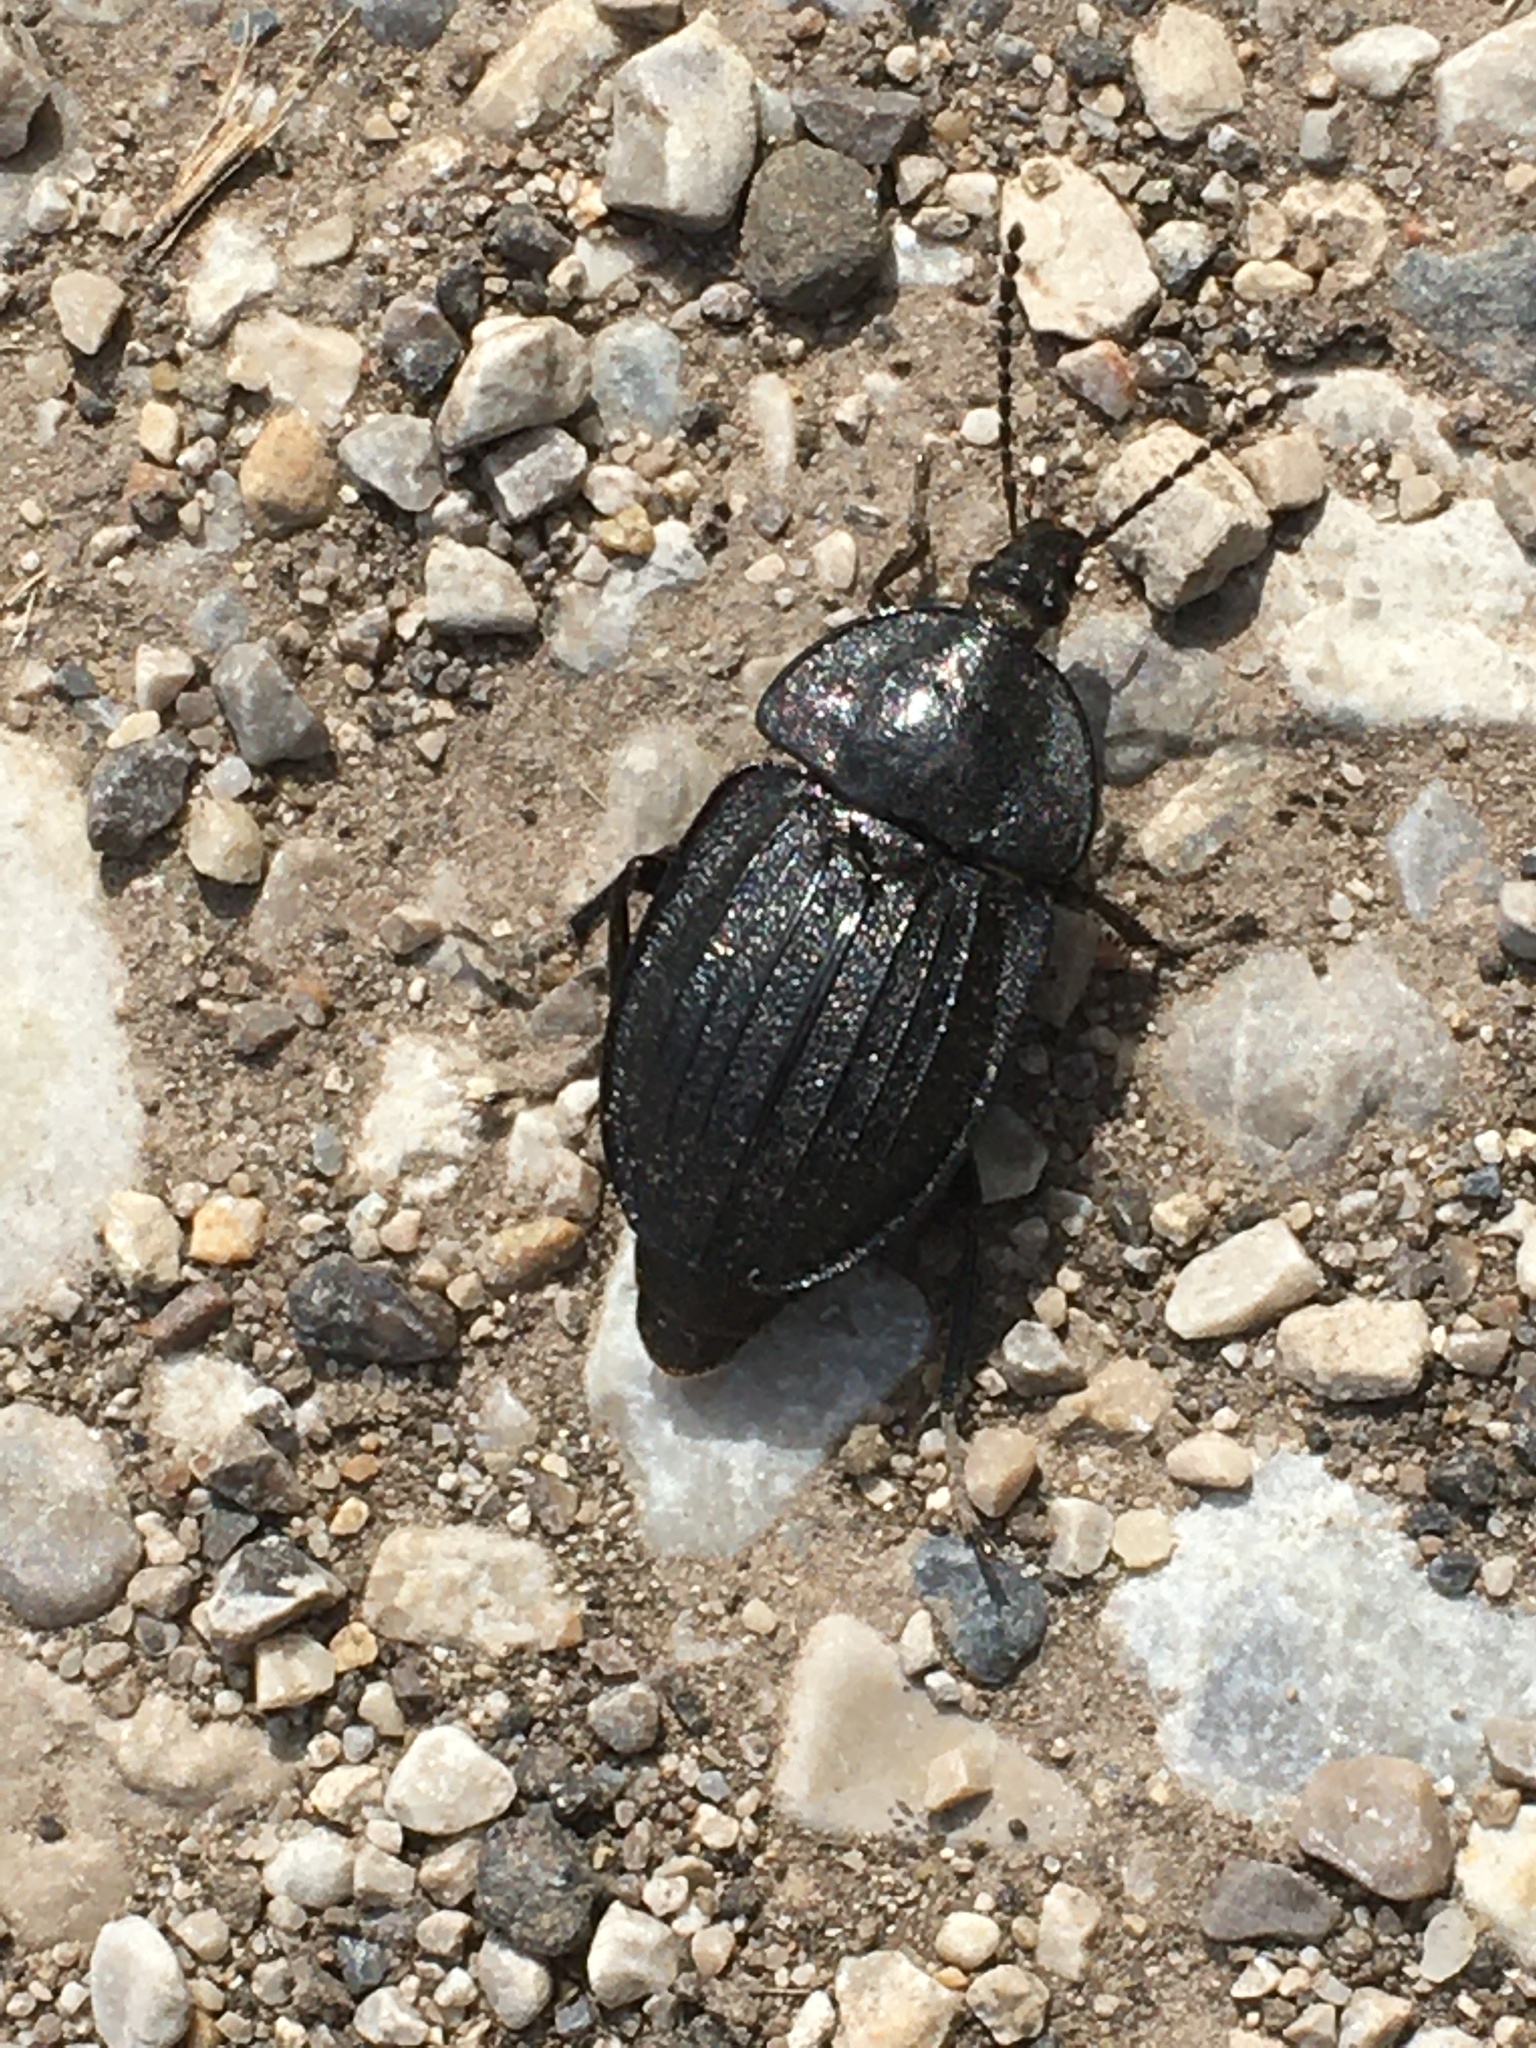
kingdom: Animalia
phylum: Arthropoda
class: Insecta
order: Coleoptera
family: Staphylinidae
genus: Silpha
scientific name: Silpha atrata
